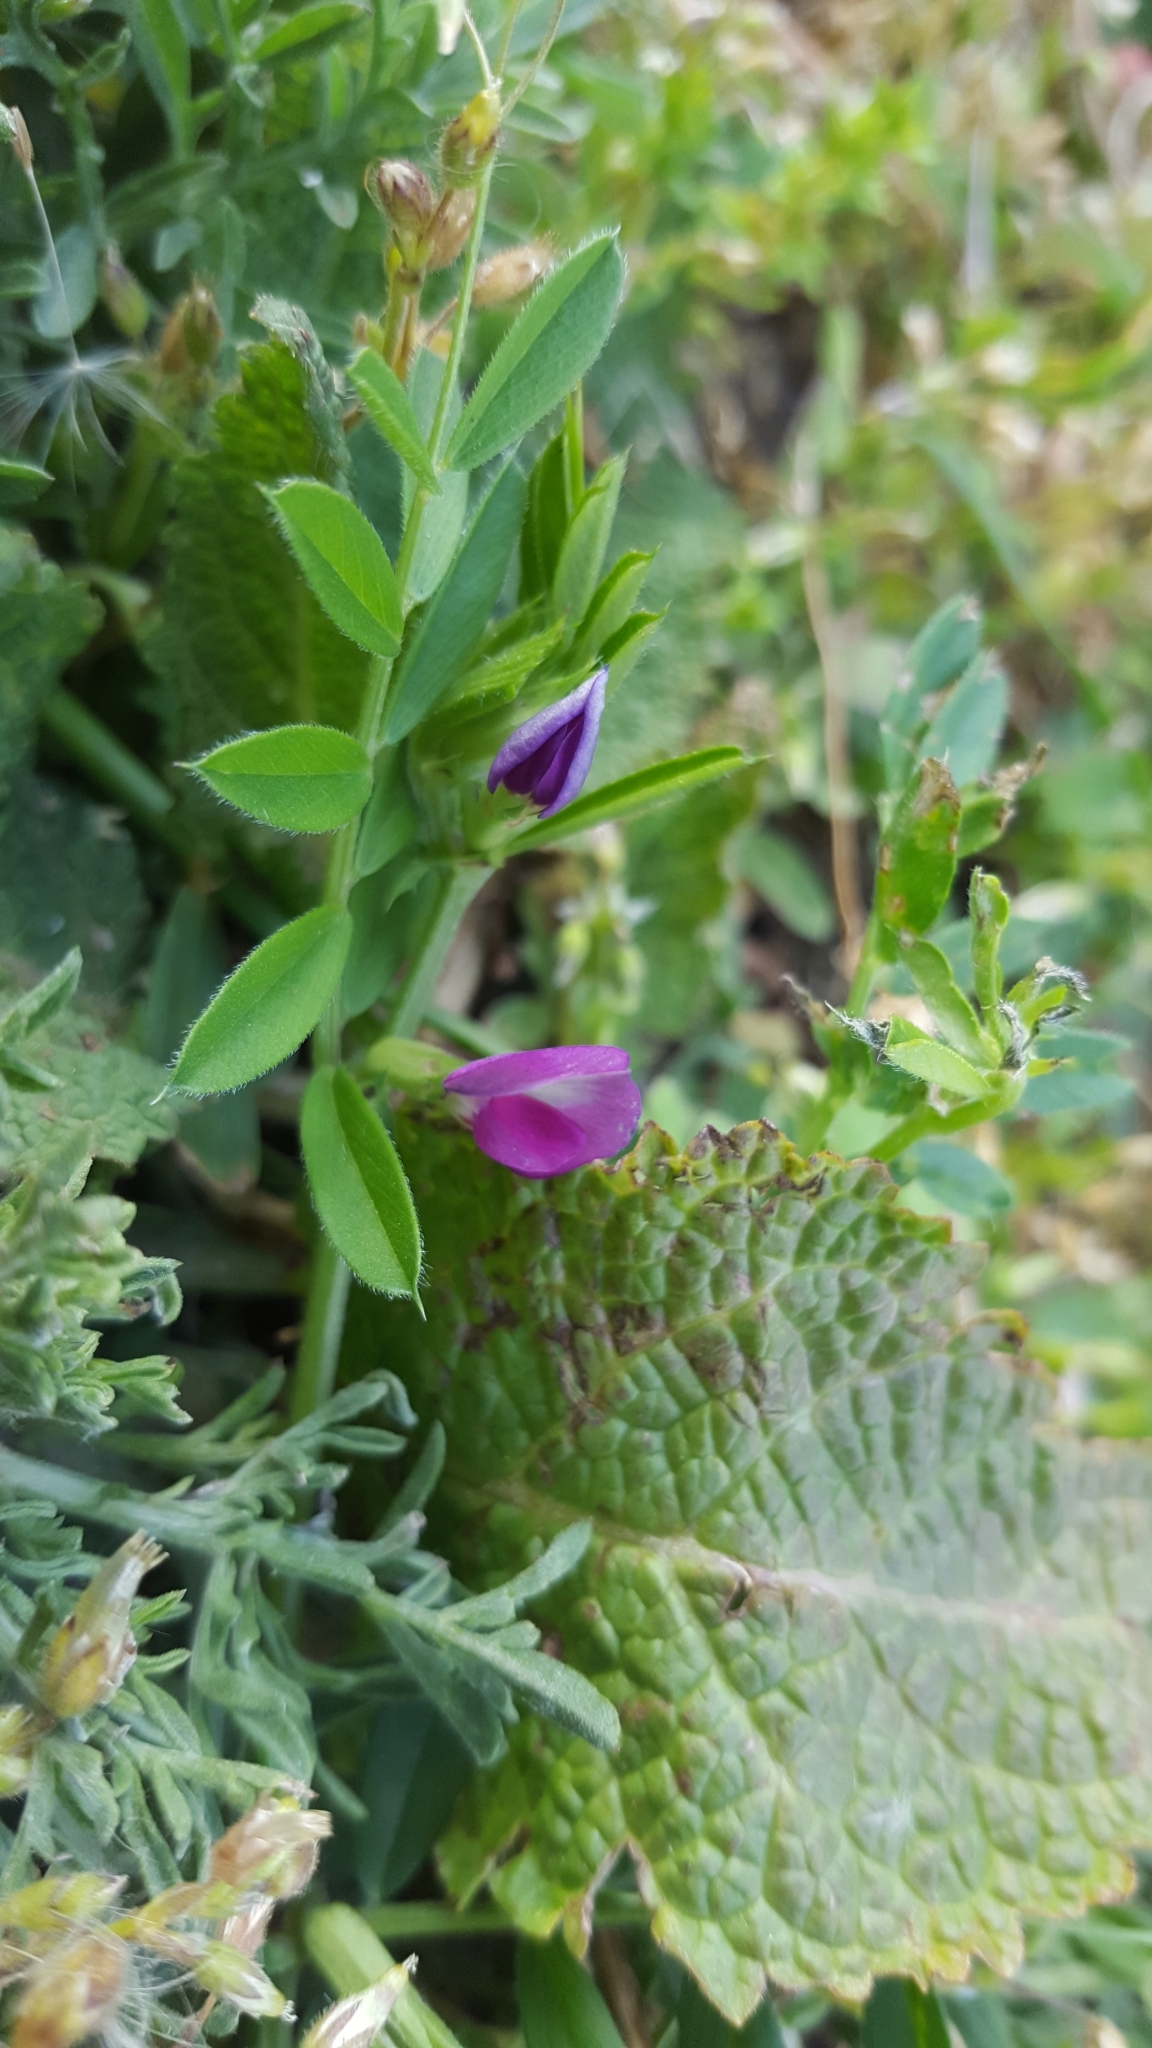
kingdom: Plantae
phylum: Tracheophyta
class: Magnoliopsida
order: Fabales
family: Fabaceae
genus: Vicia
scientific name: Vicia sativa
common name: Garden vetch
